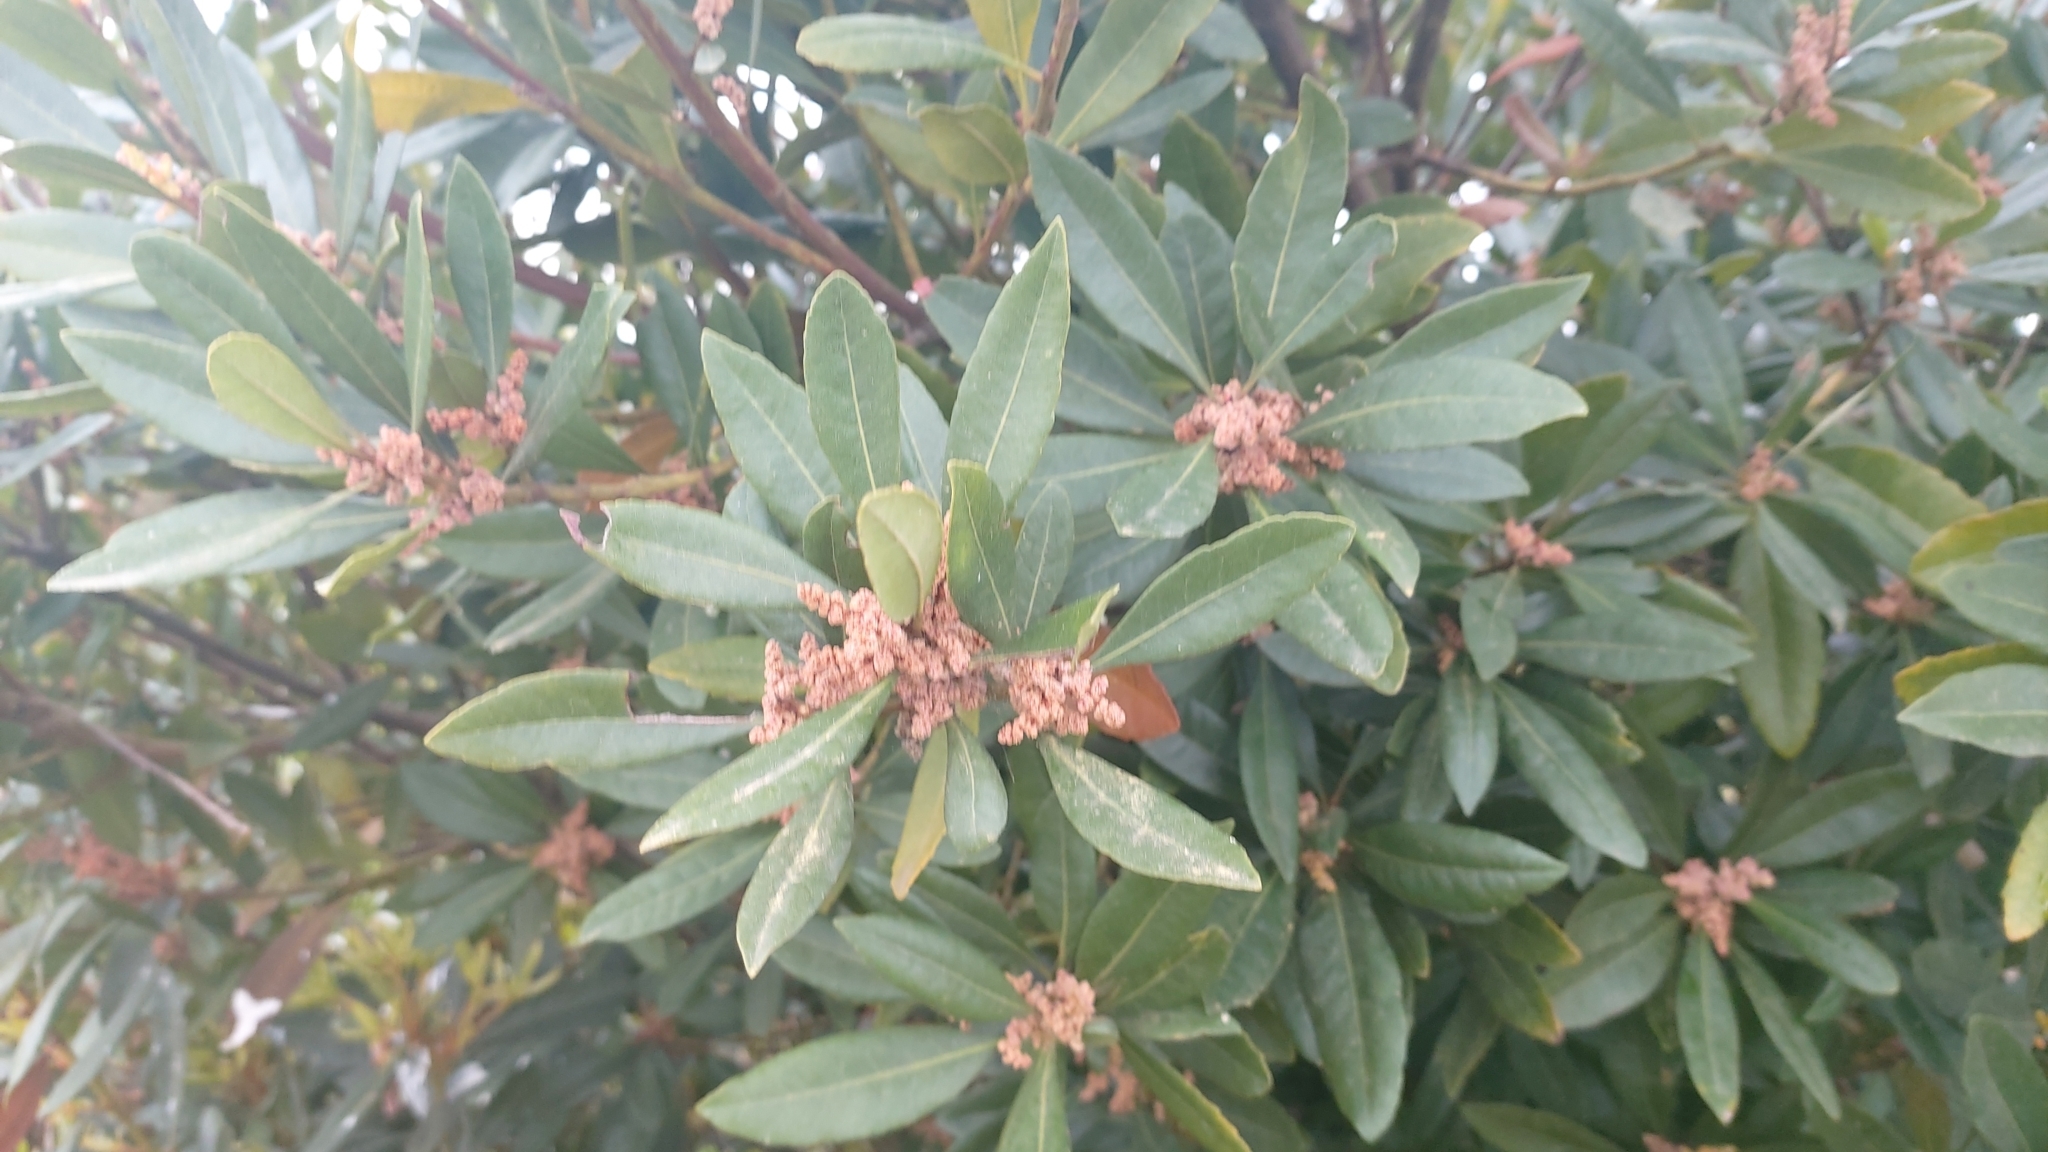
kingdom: Plantae
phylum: Tracheophyta
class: Magnoliopsida
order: Fagales
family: Myricaceae
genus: Morella
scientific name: Morella faya
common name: Firetree
